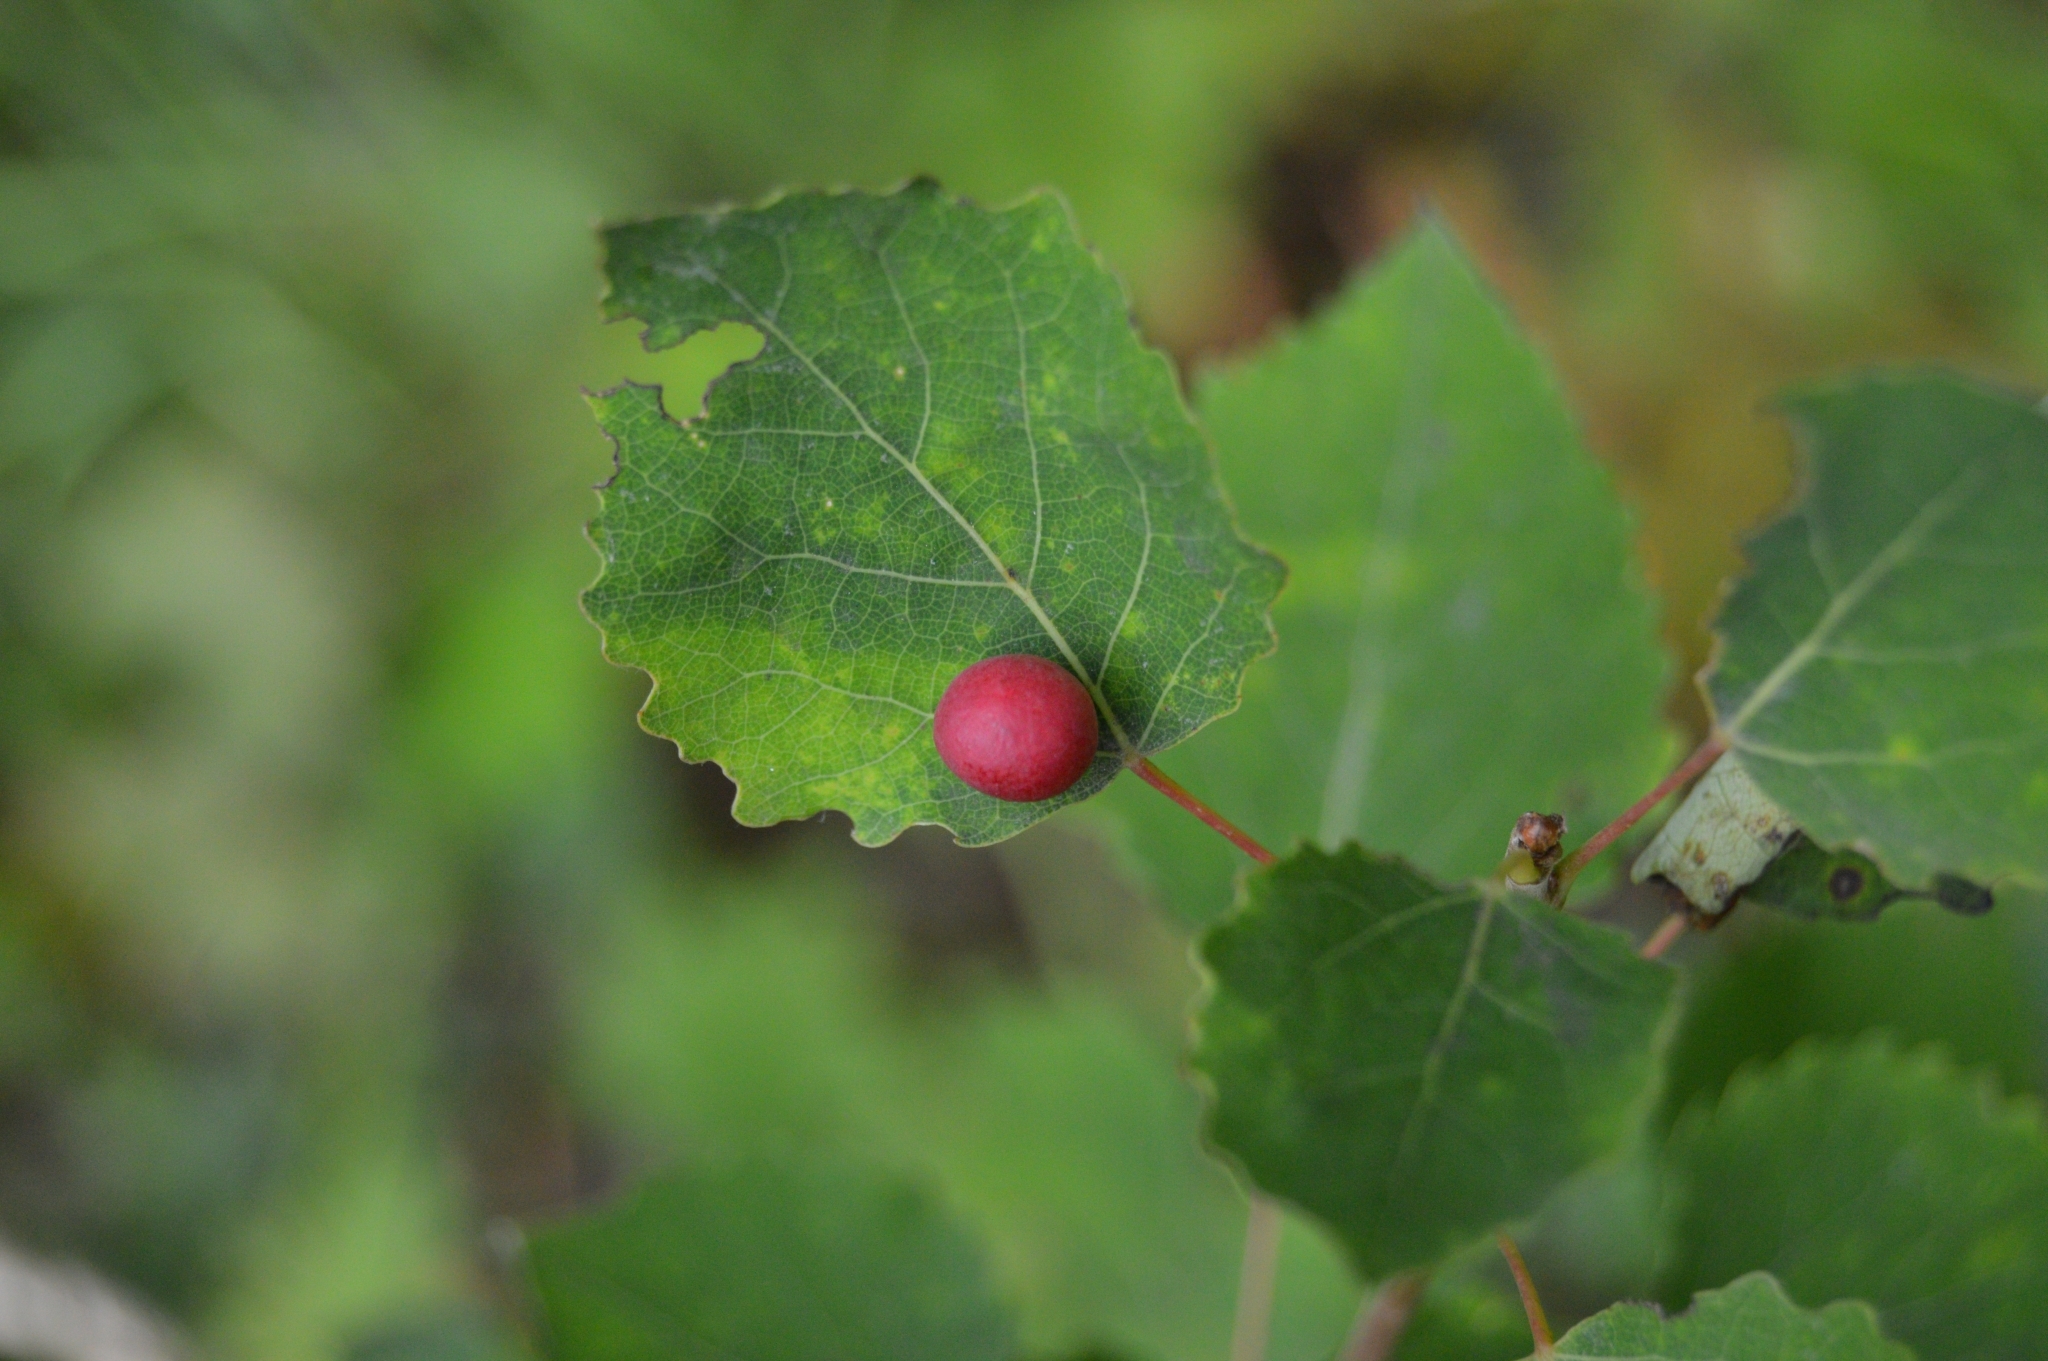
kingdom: Animalia
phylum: Arthropoda
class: Insecta
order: Diptera
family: Cecidomyiidae
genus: Harmandiola
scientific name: Harmandiola tremulae
